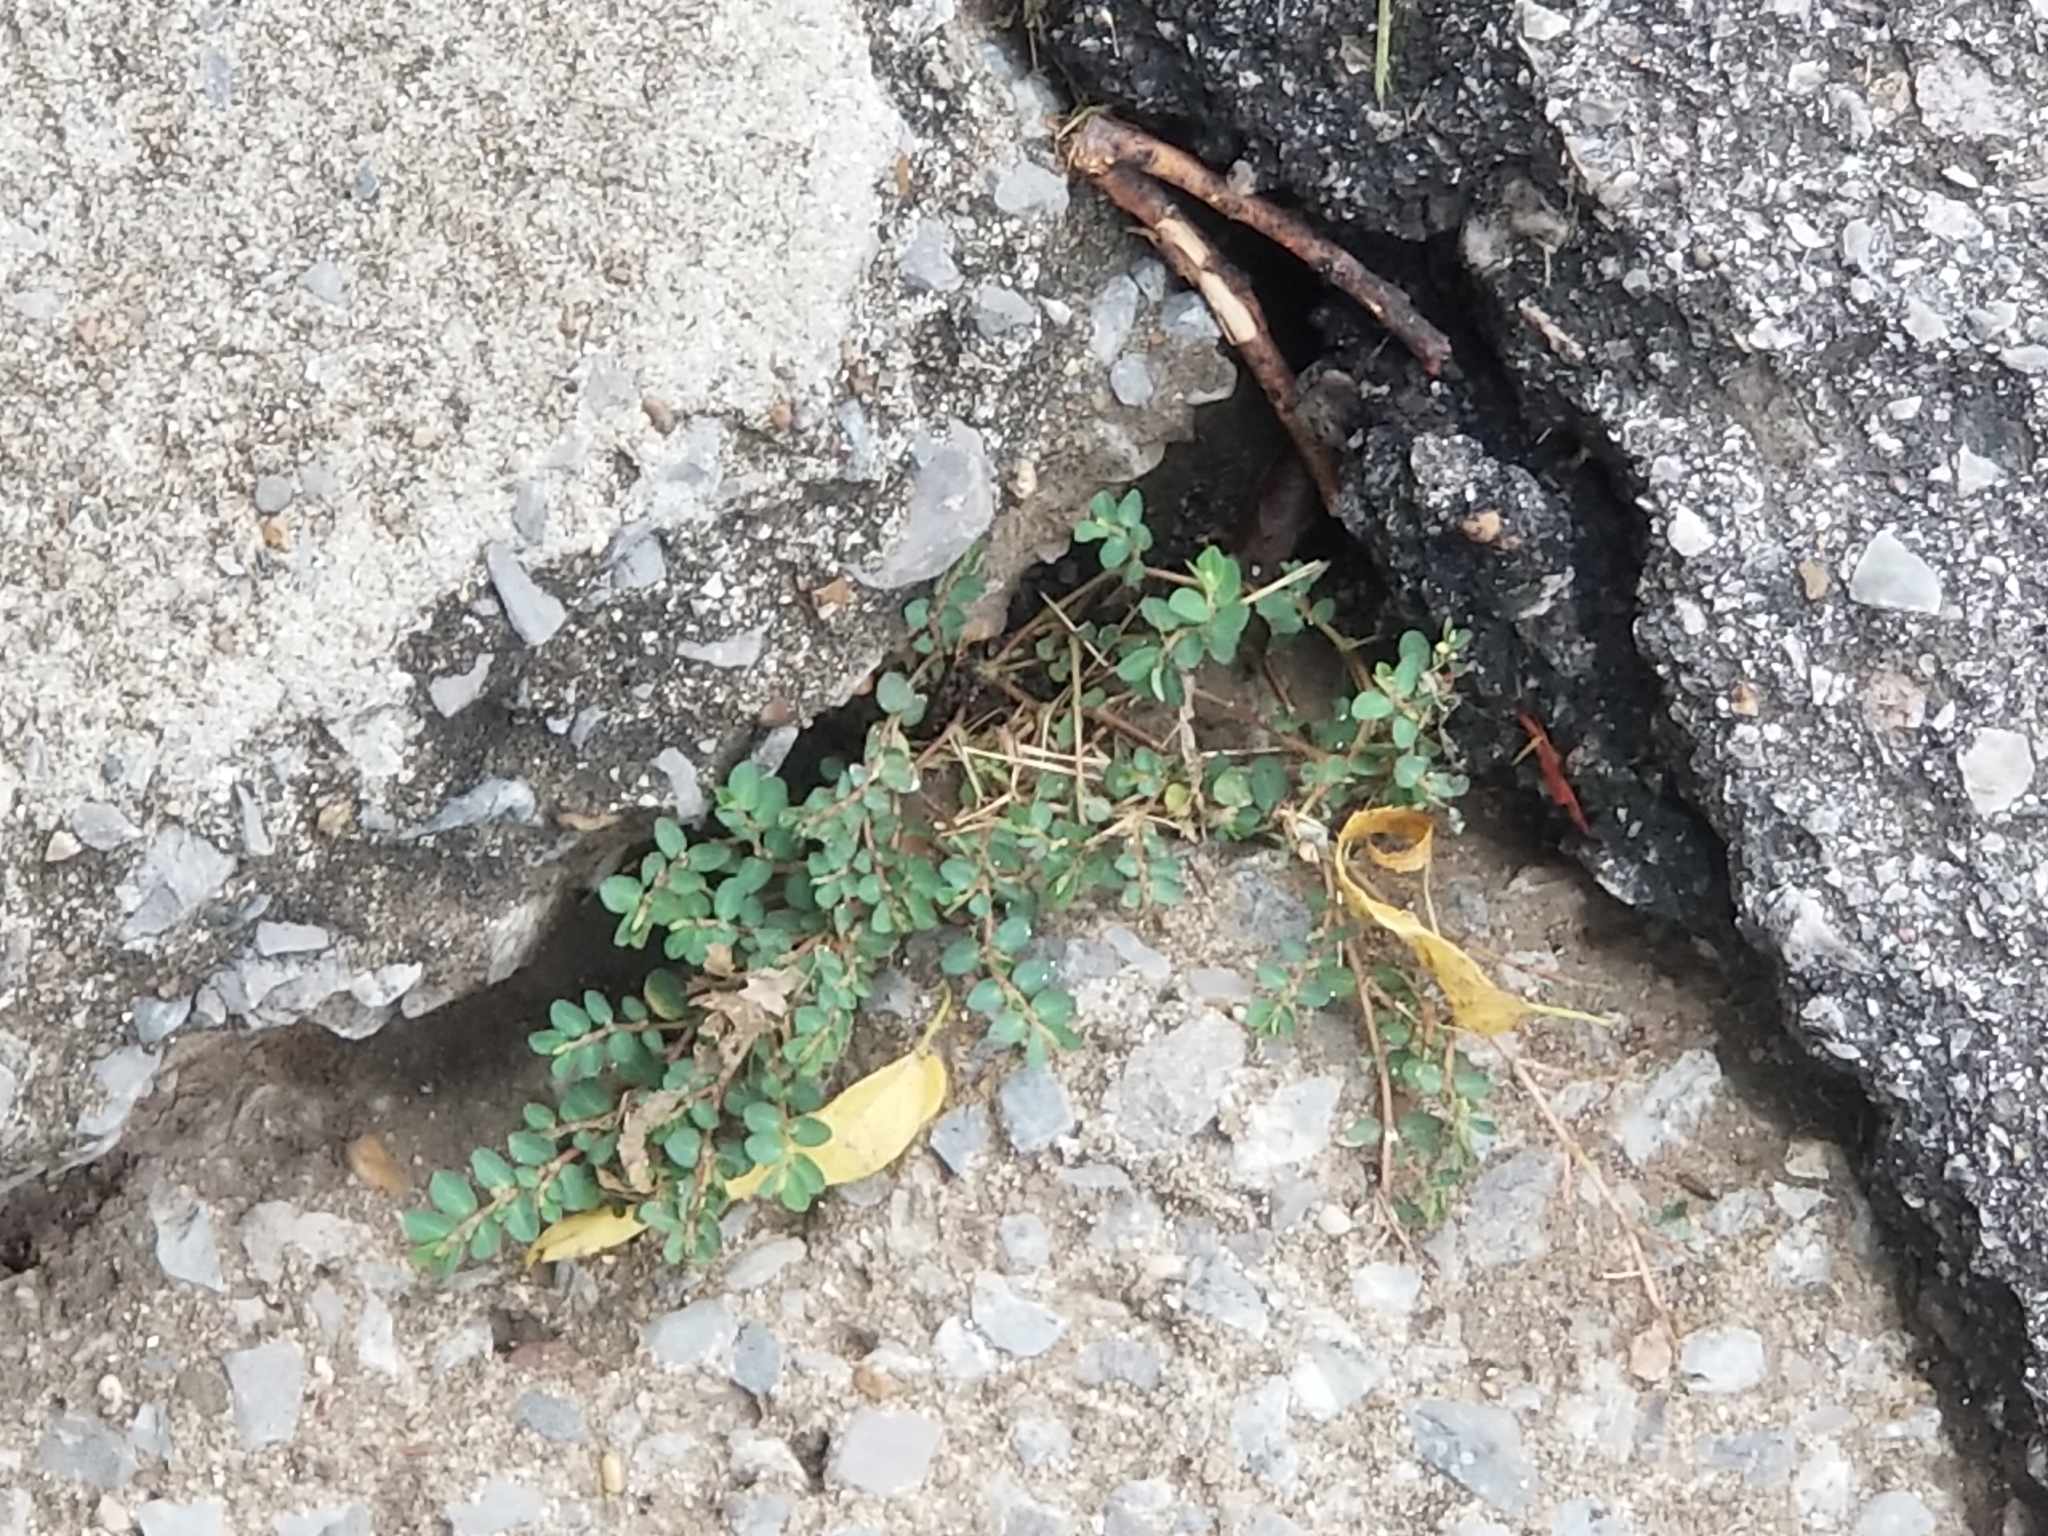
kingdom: Plantae
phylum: Tracheophyta
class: Magnoliopsida
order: Malpighiales
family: Euphorbiaceae
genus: Euphorbia
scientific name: Euphorbia prostrata
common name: Prostrate sandmat
